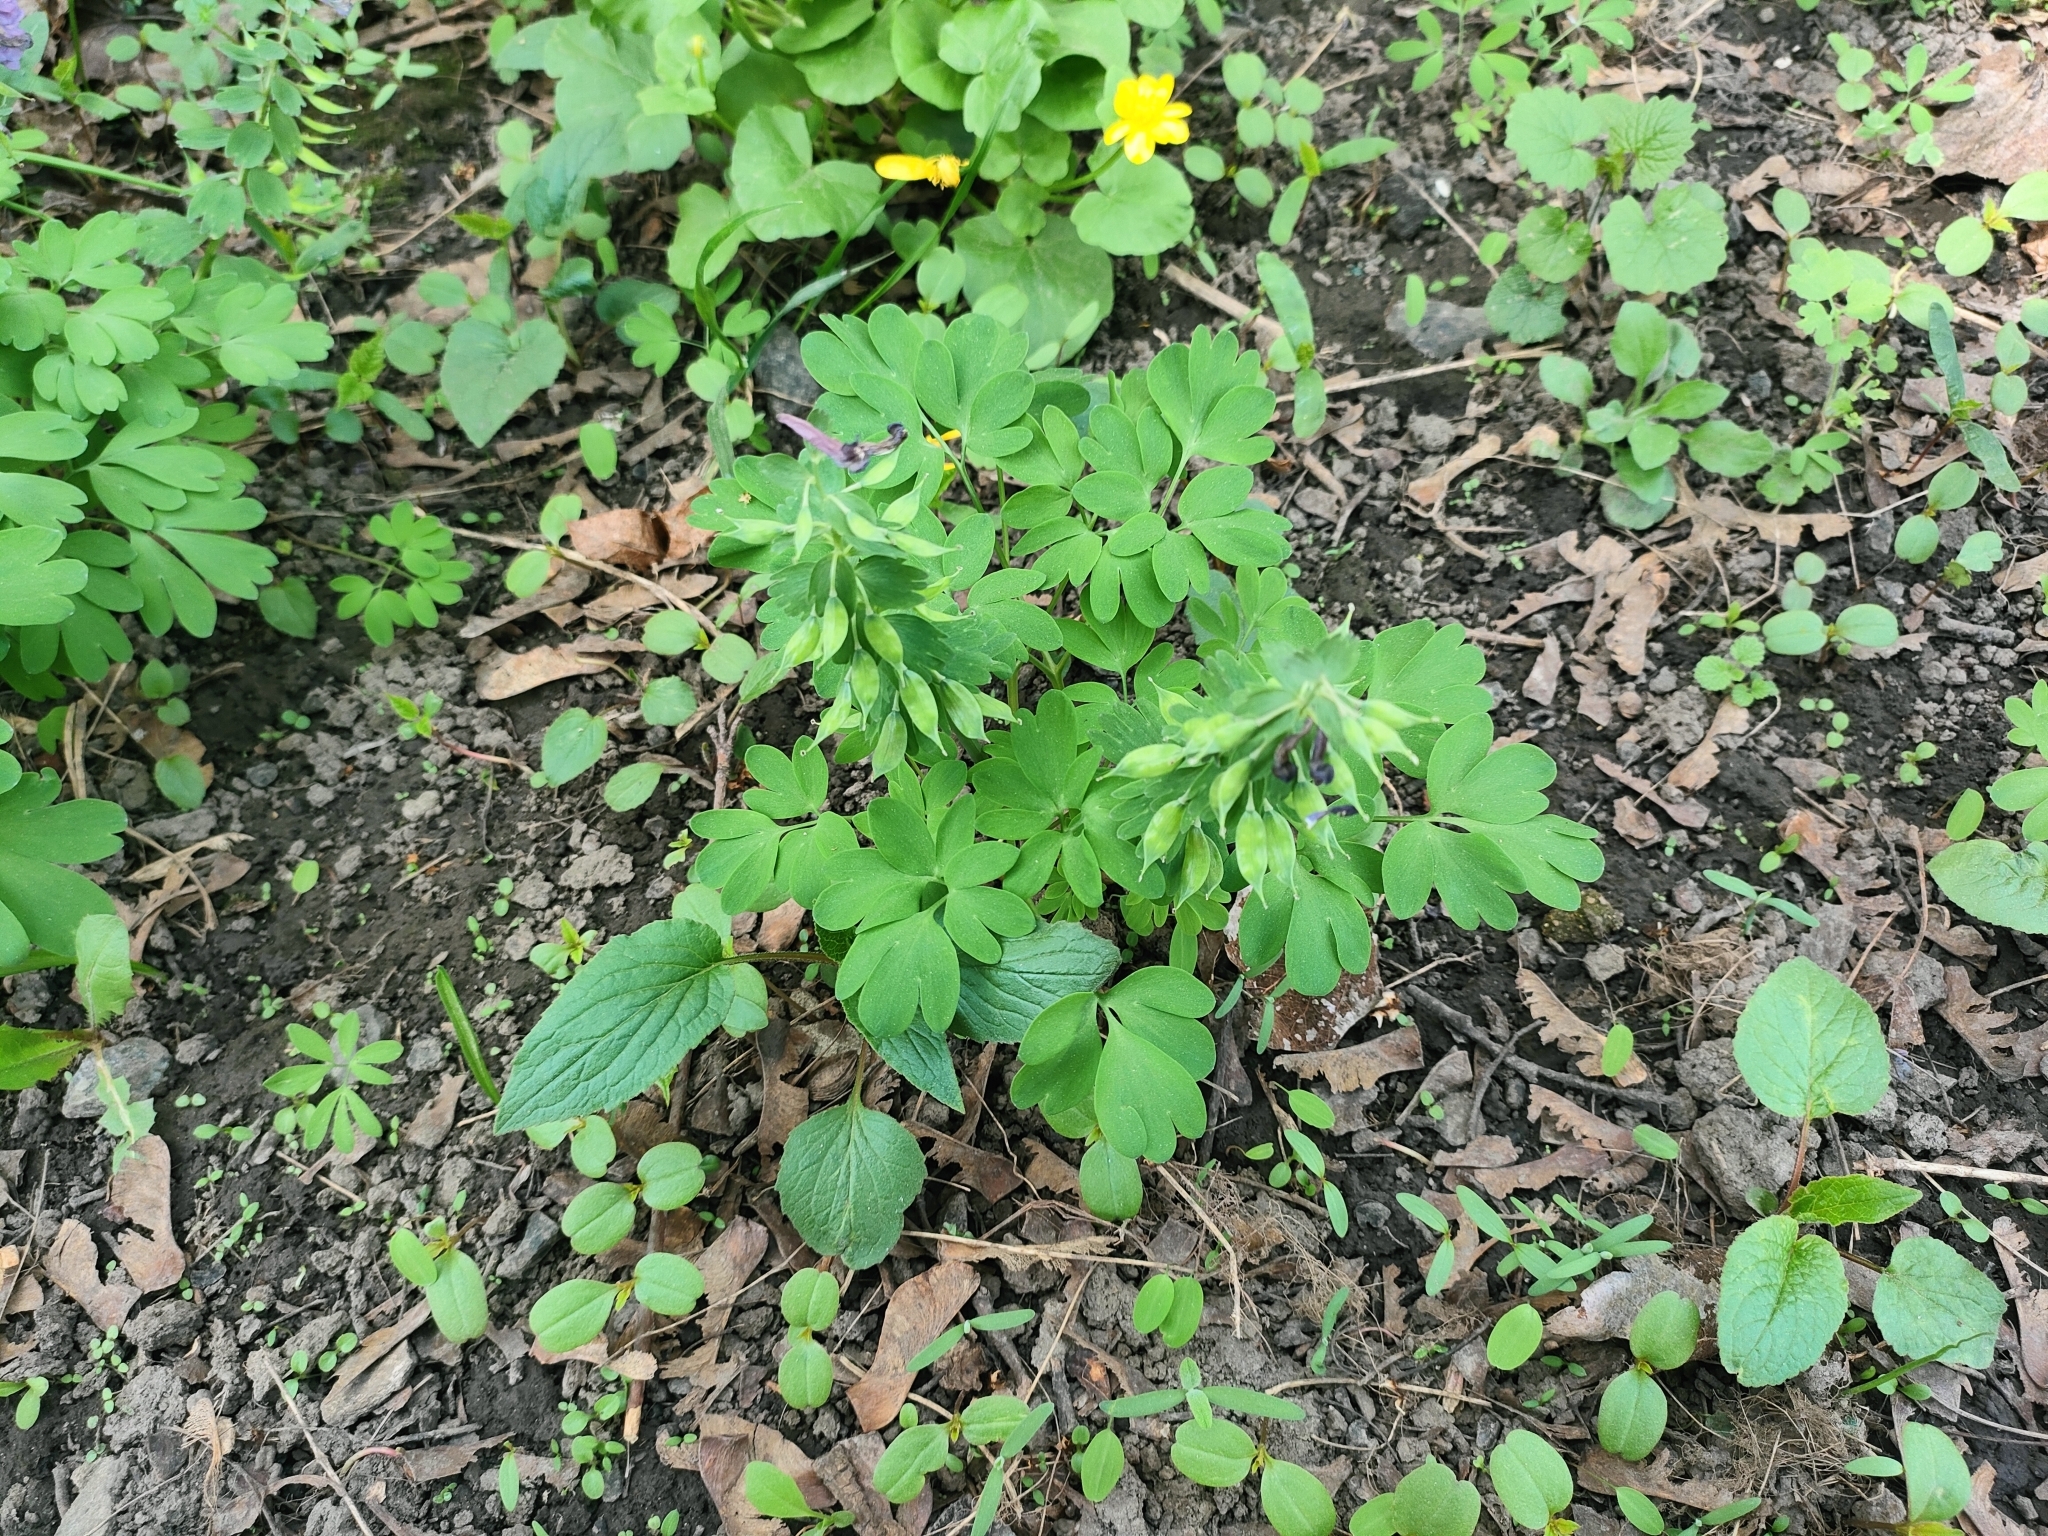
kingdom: Plantae
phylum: Tracheophyta
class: Magnoliopsida
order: Ranunculales
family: Papaveraceae
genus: Corydalis
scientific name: Corydalis solida
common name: Bird-in-a-bush
